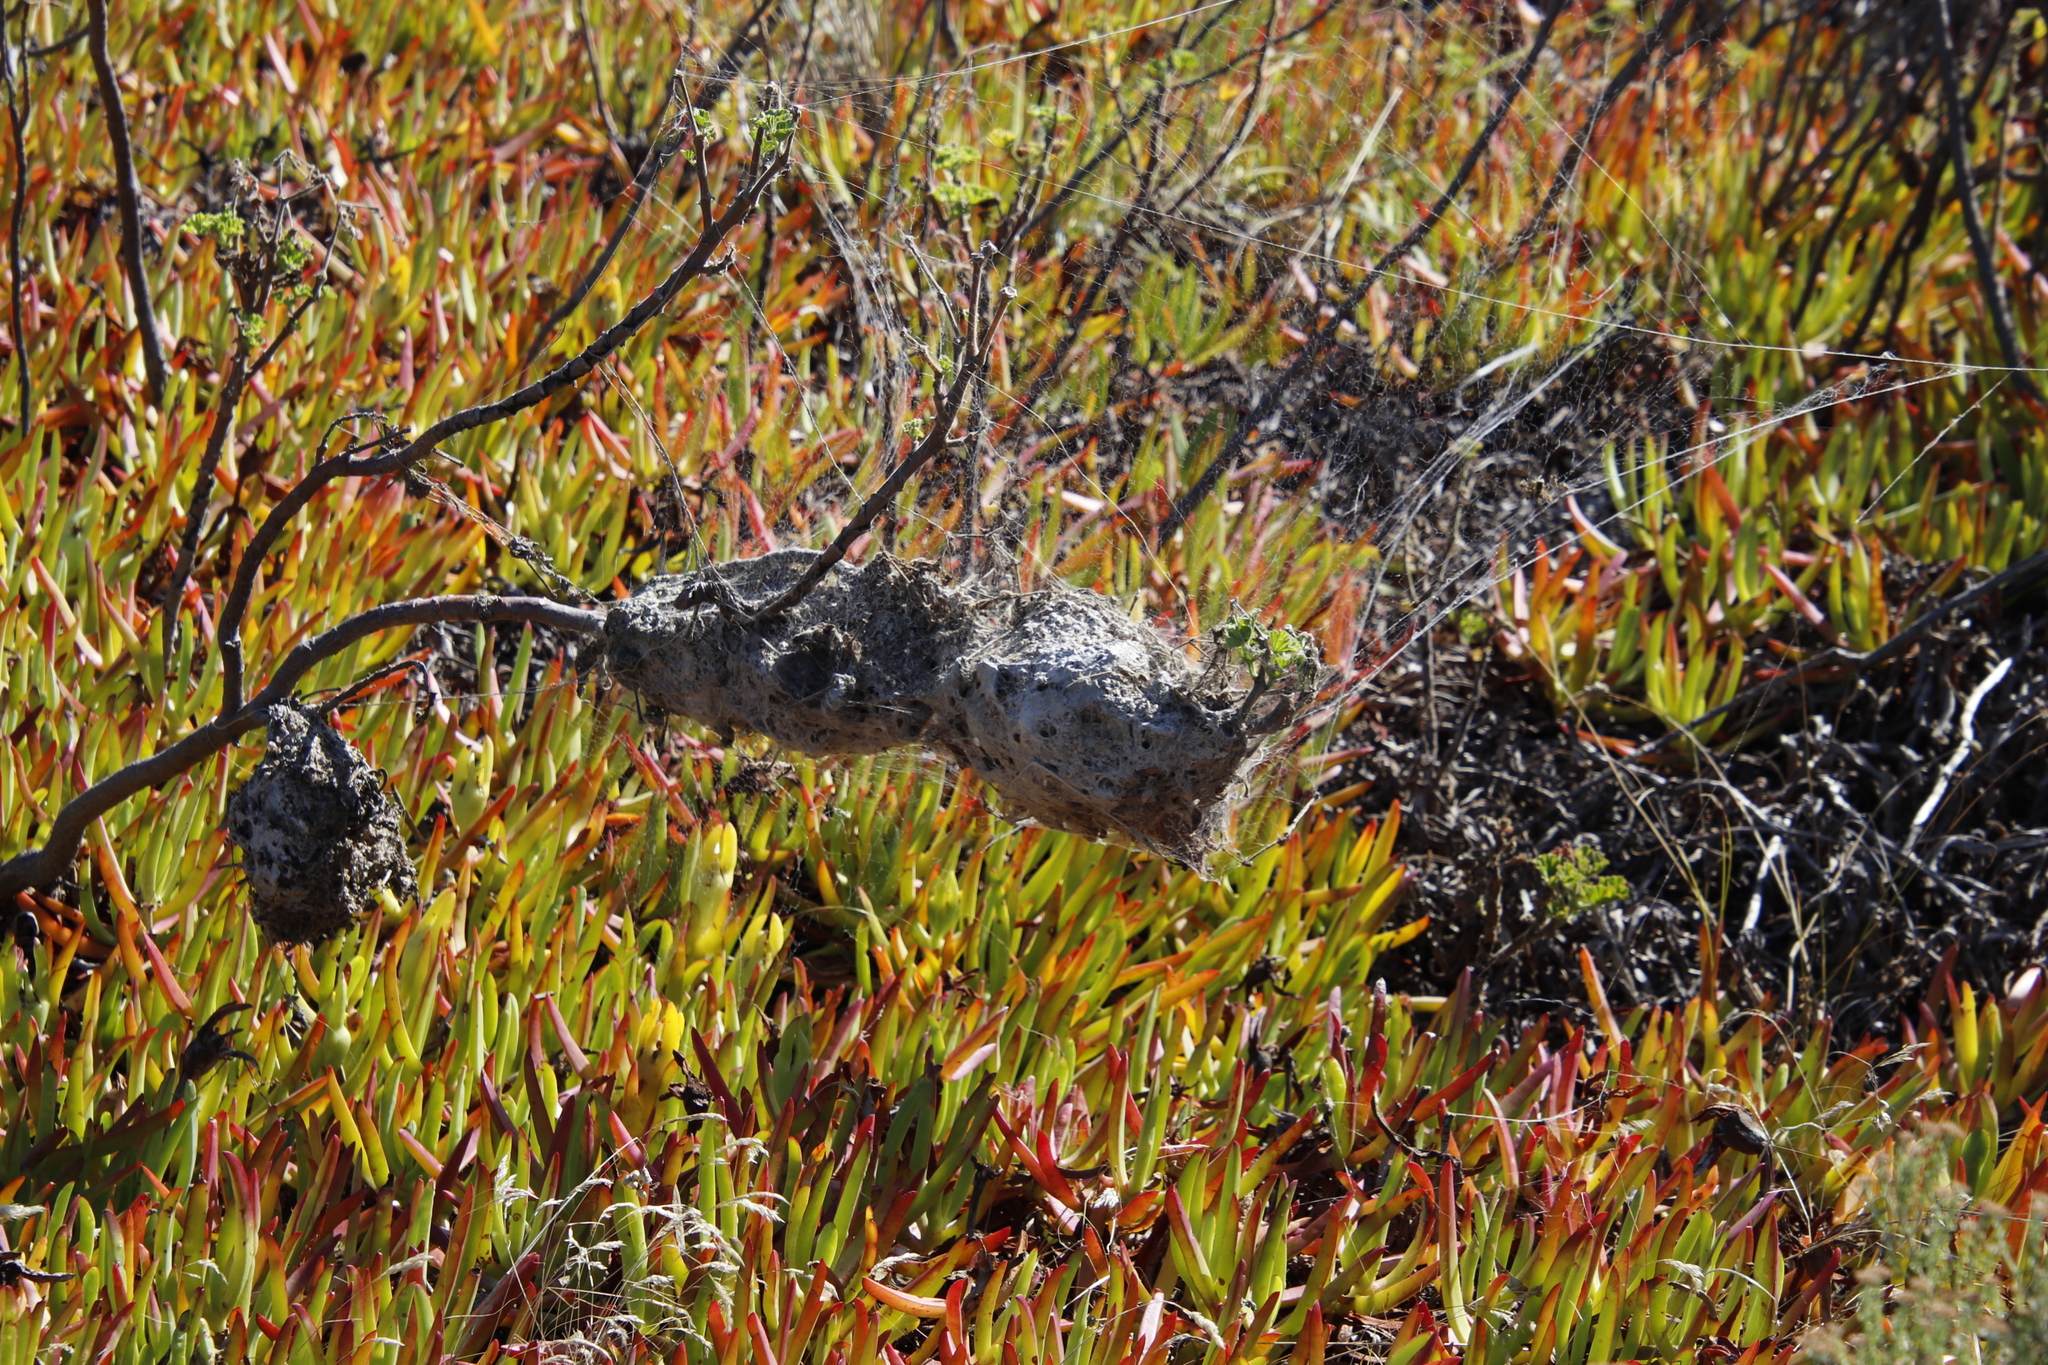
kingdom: Animalia
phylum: Arthropoda
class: Arachnida
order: Araneae
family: Eresidae
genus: Stegodyphus
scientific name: Stegodyphus dumicola
